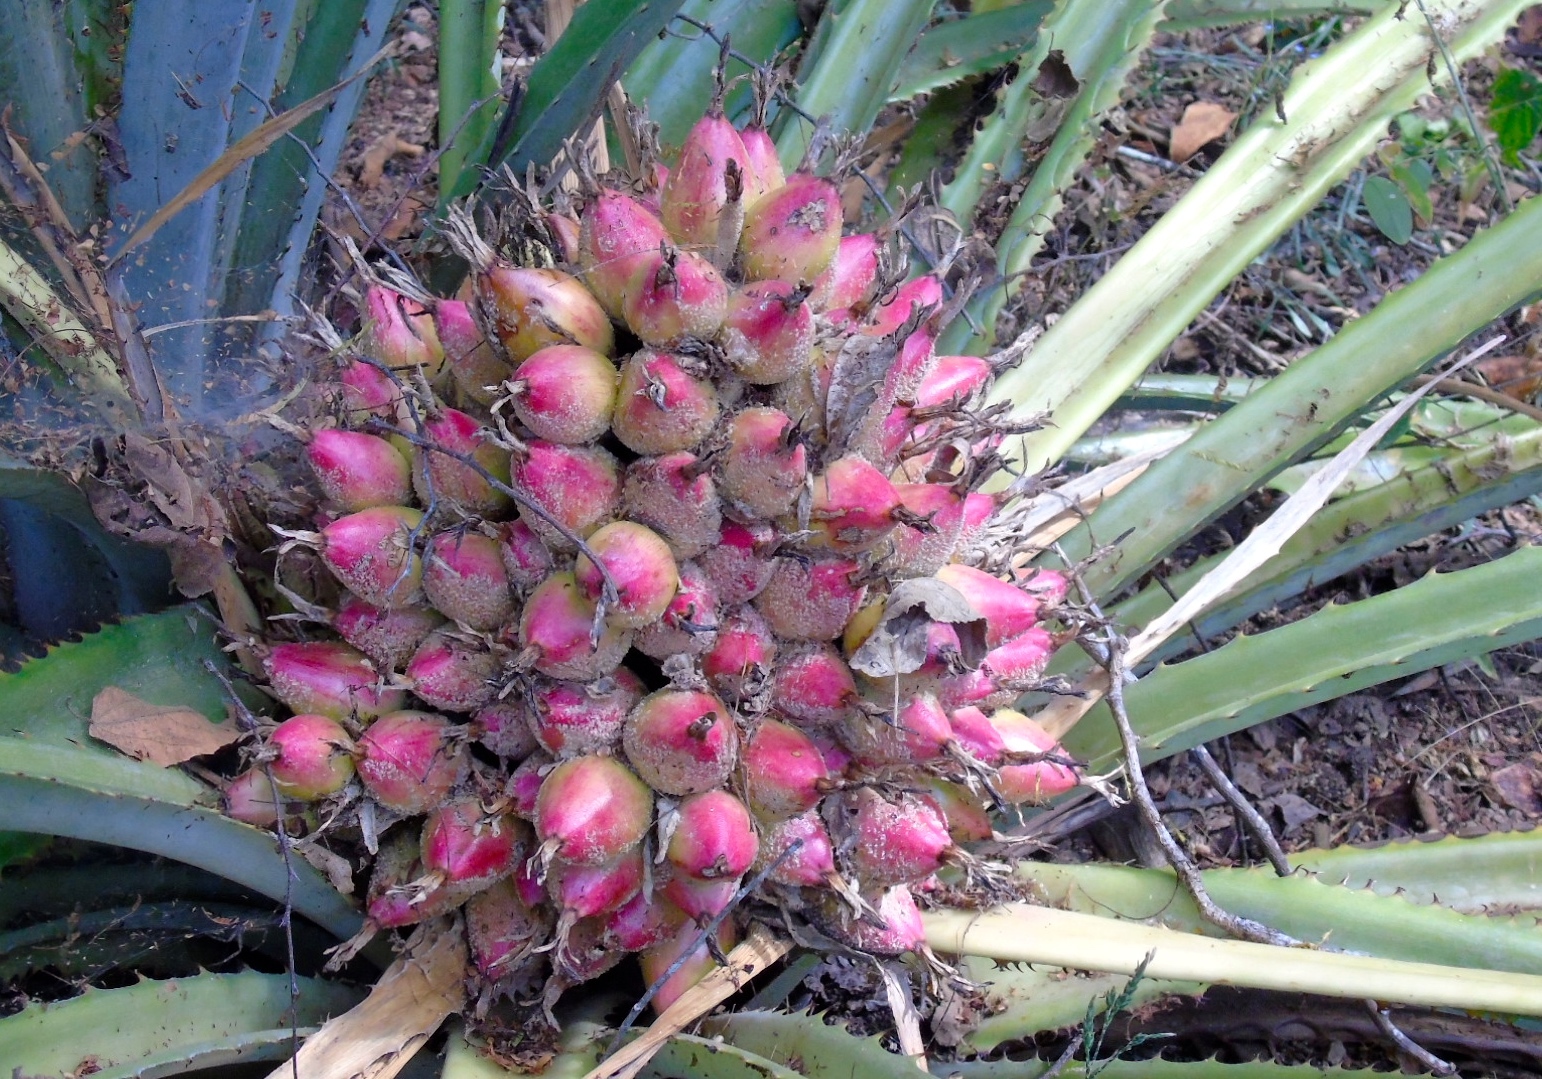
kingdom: Plantae
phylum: Tracheophyta
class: Liliopsida
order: Poales
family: Bromeliaceae
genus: Bromelia
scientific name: Bromelia
